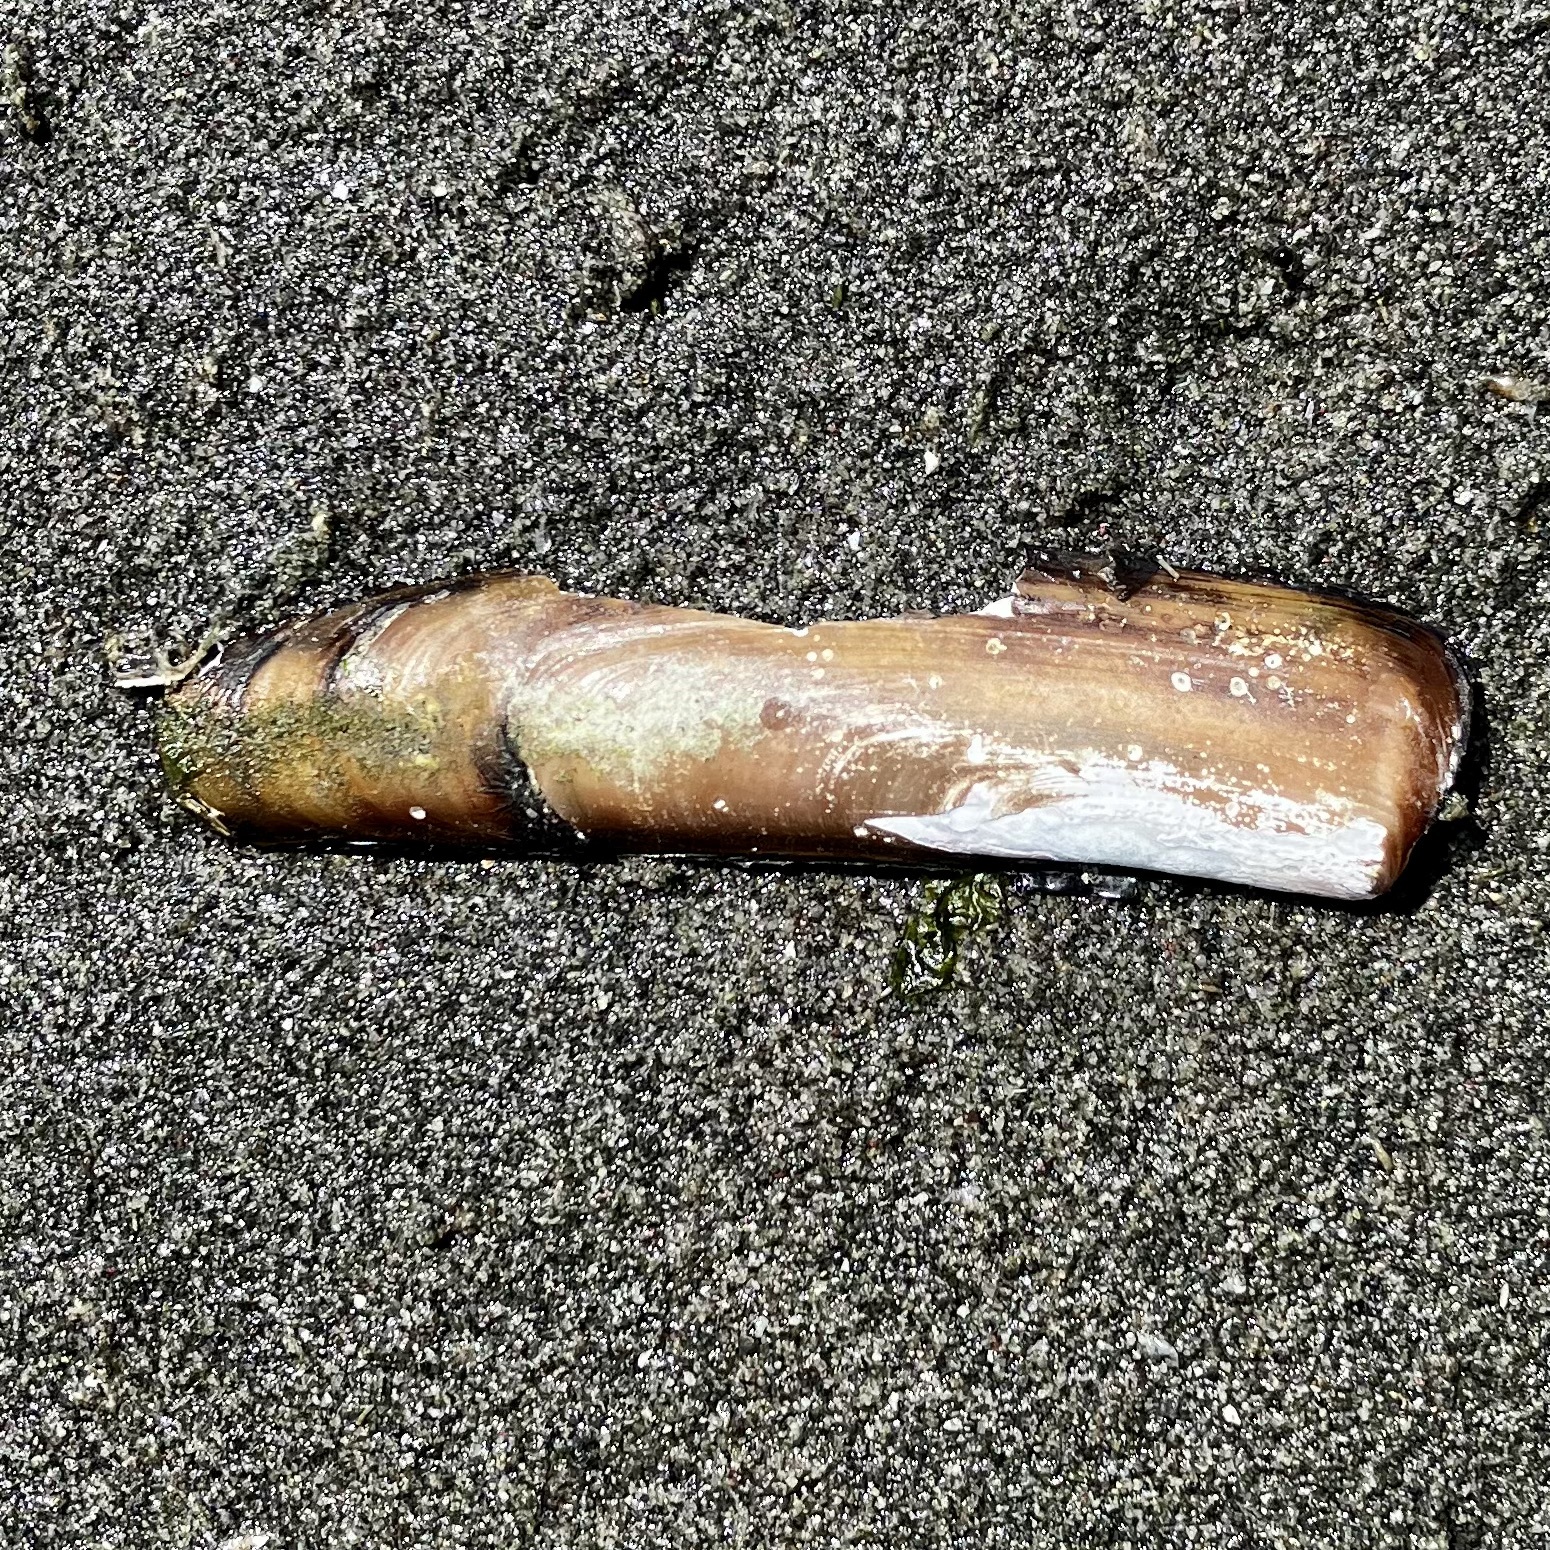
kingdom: Animalia
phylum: Mollusca
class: Bivalvia
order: Adapedonta
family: Solenidae
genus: Solen
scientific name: Solen sicarius
